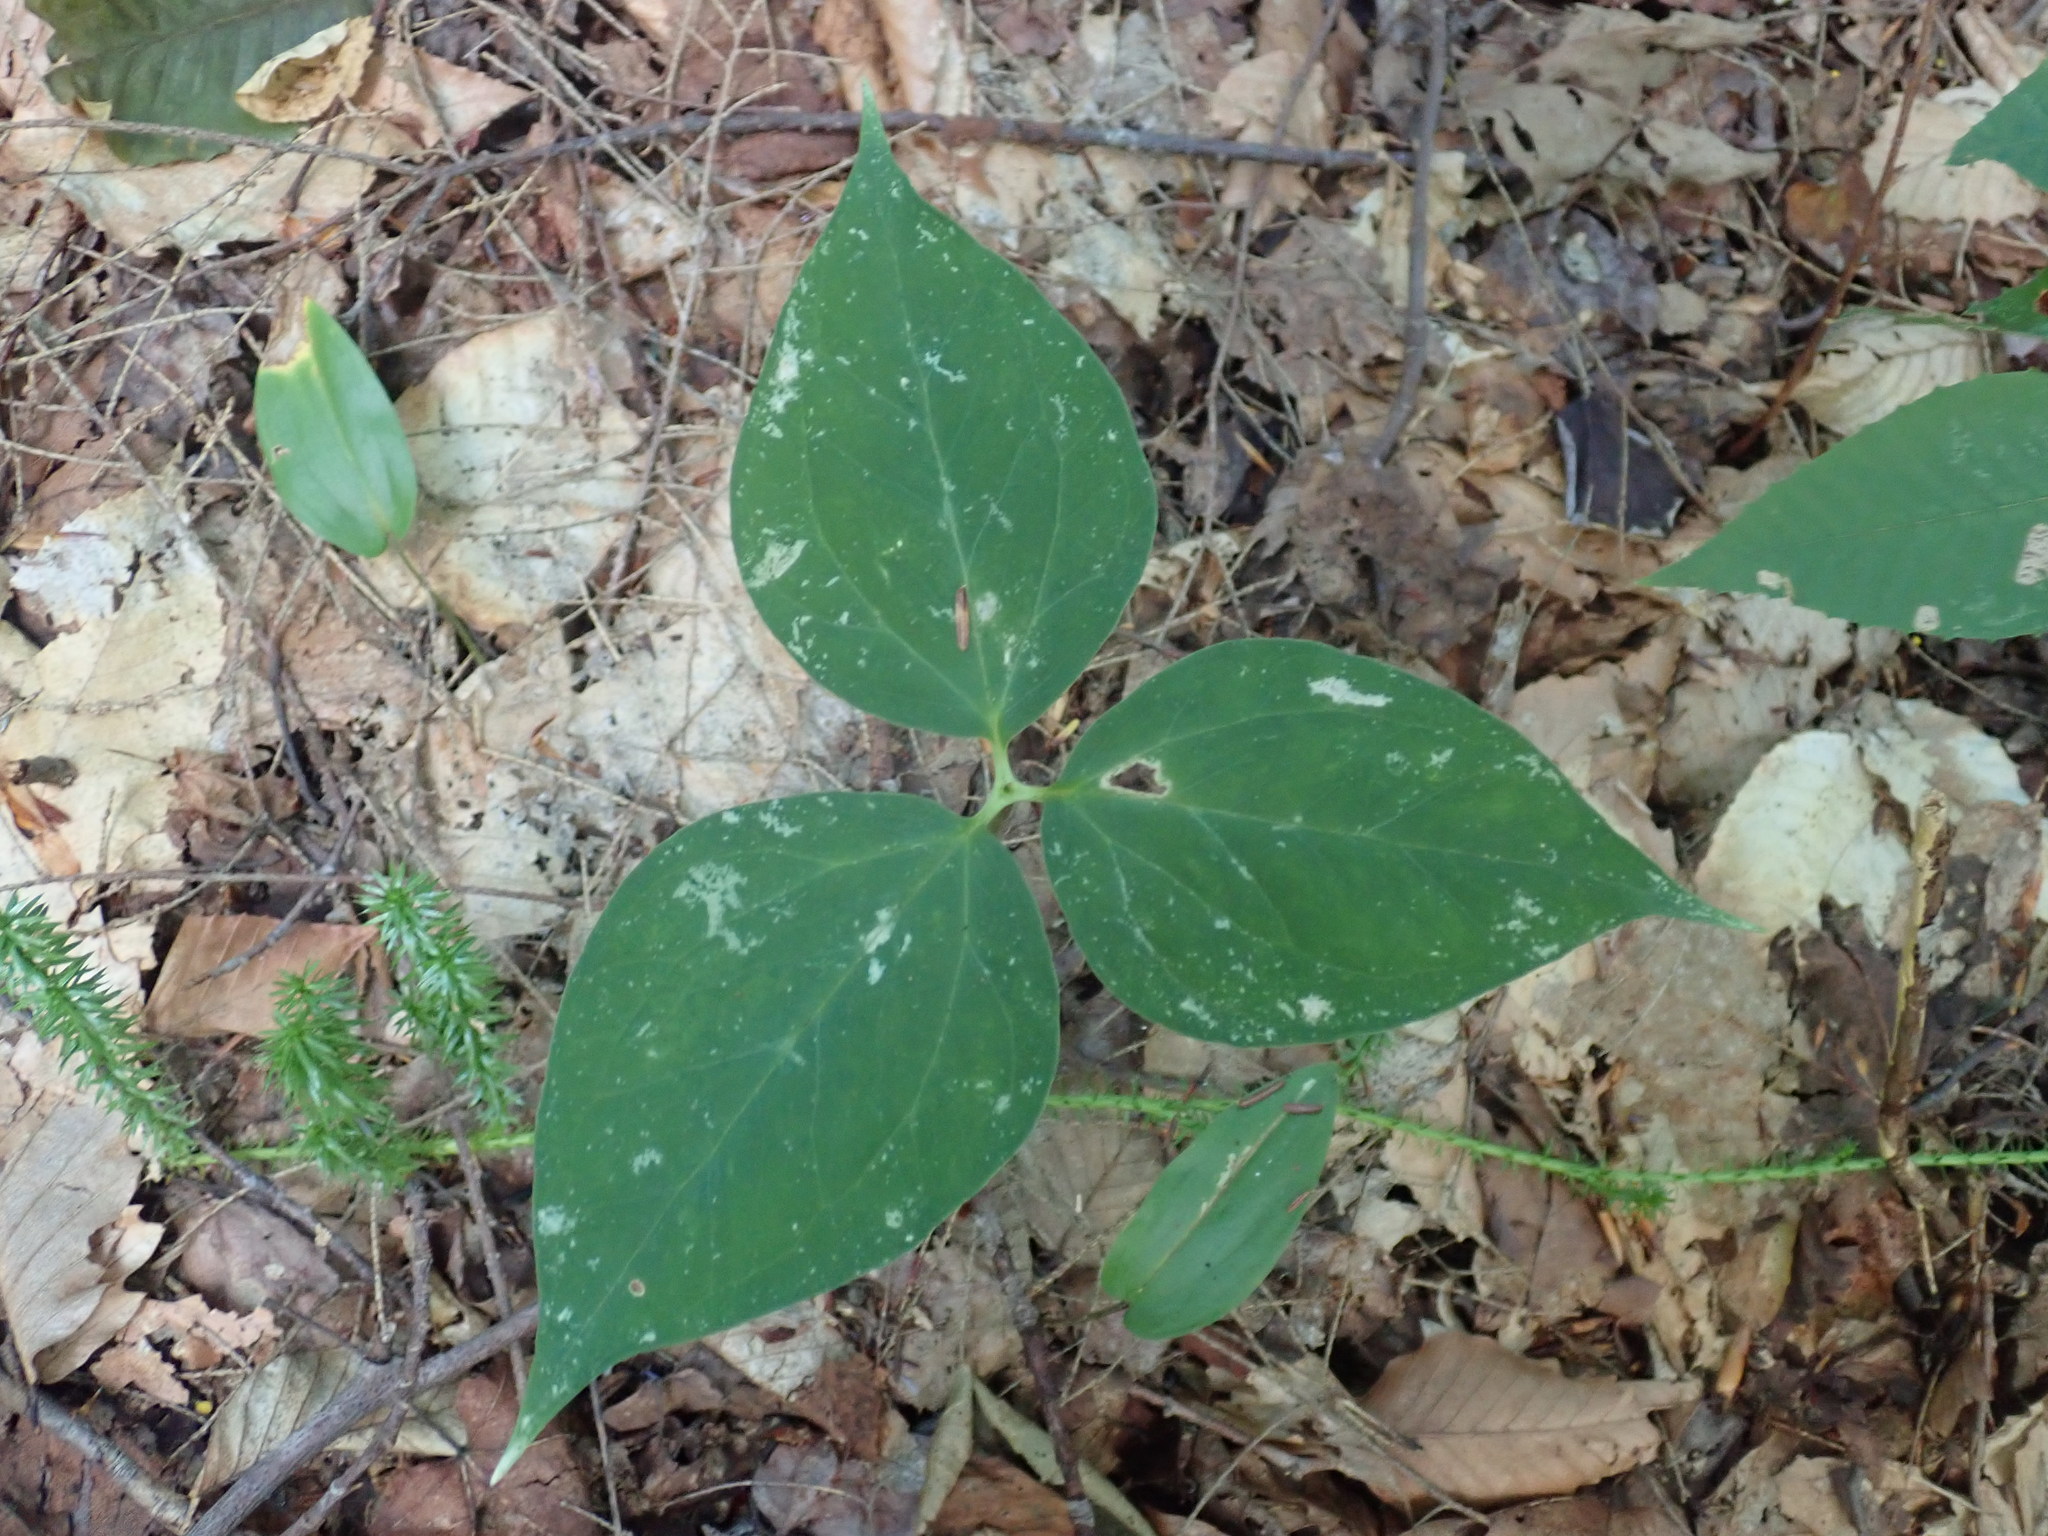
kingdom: Plantae
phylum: Tracheophyta
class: Liliopsida
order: Liliales
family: Melanthiaceae
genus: Trillium
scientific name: Trillium undulatum
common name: Paint trillium
